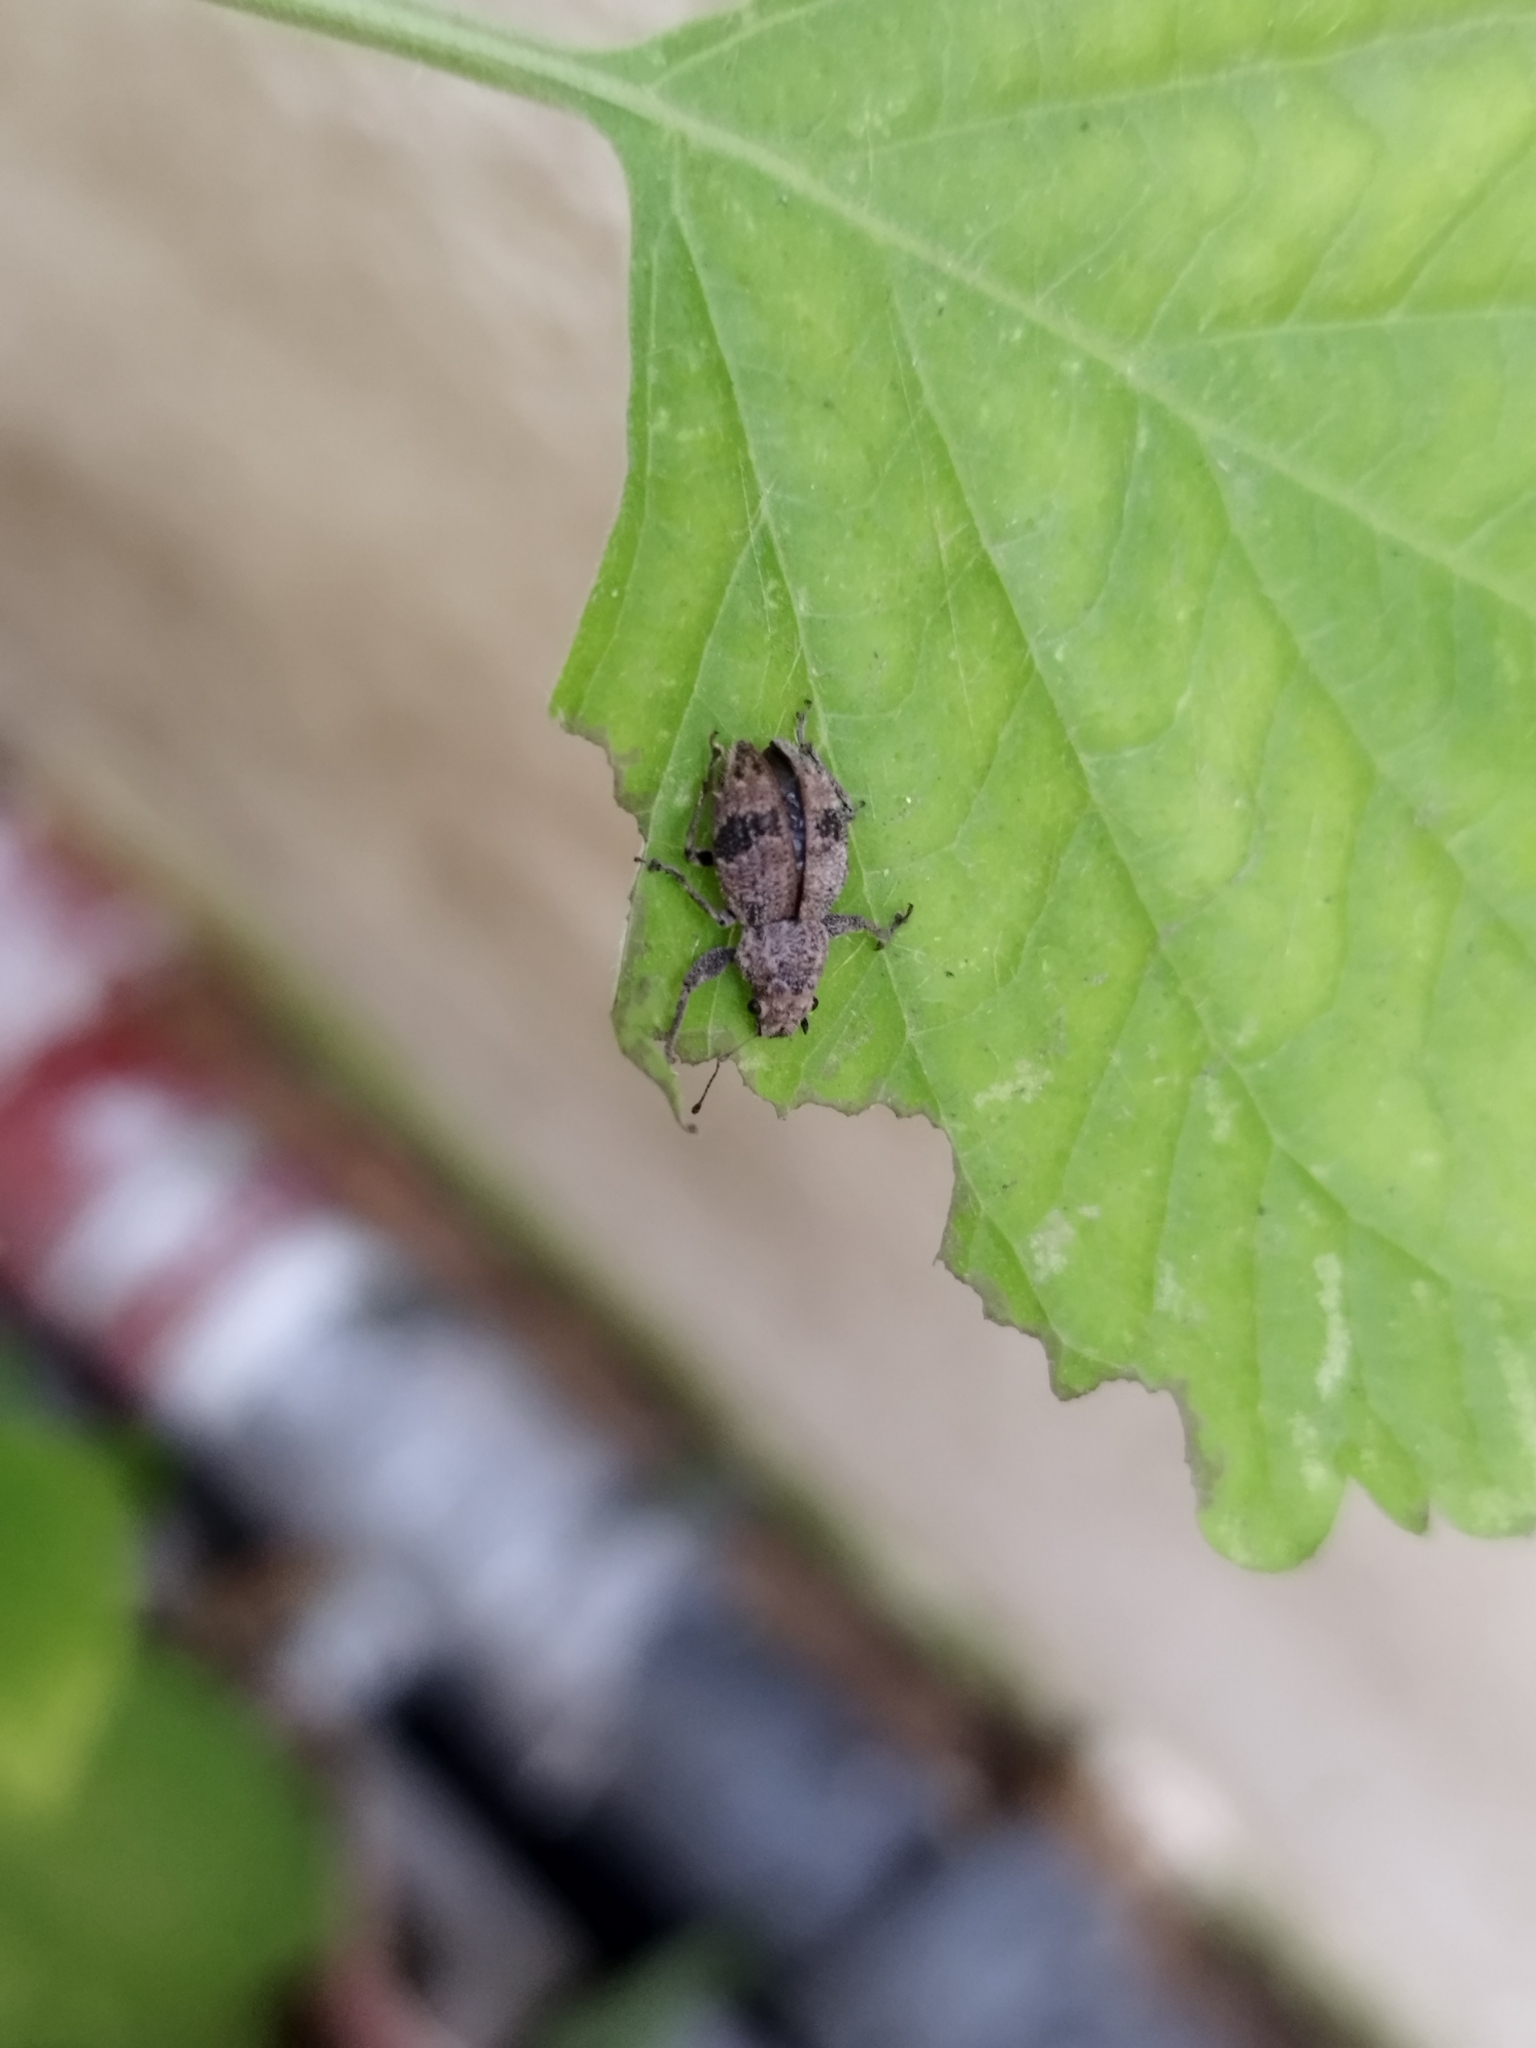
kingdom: Animalia
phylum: Arthropoda
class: Insecta
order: Coleoptera
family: Curculionidae
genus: Pantomorus
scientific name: Pantomorus
